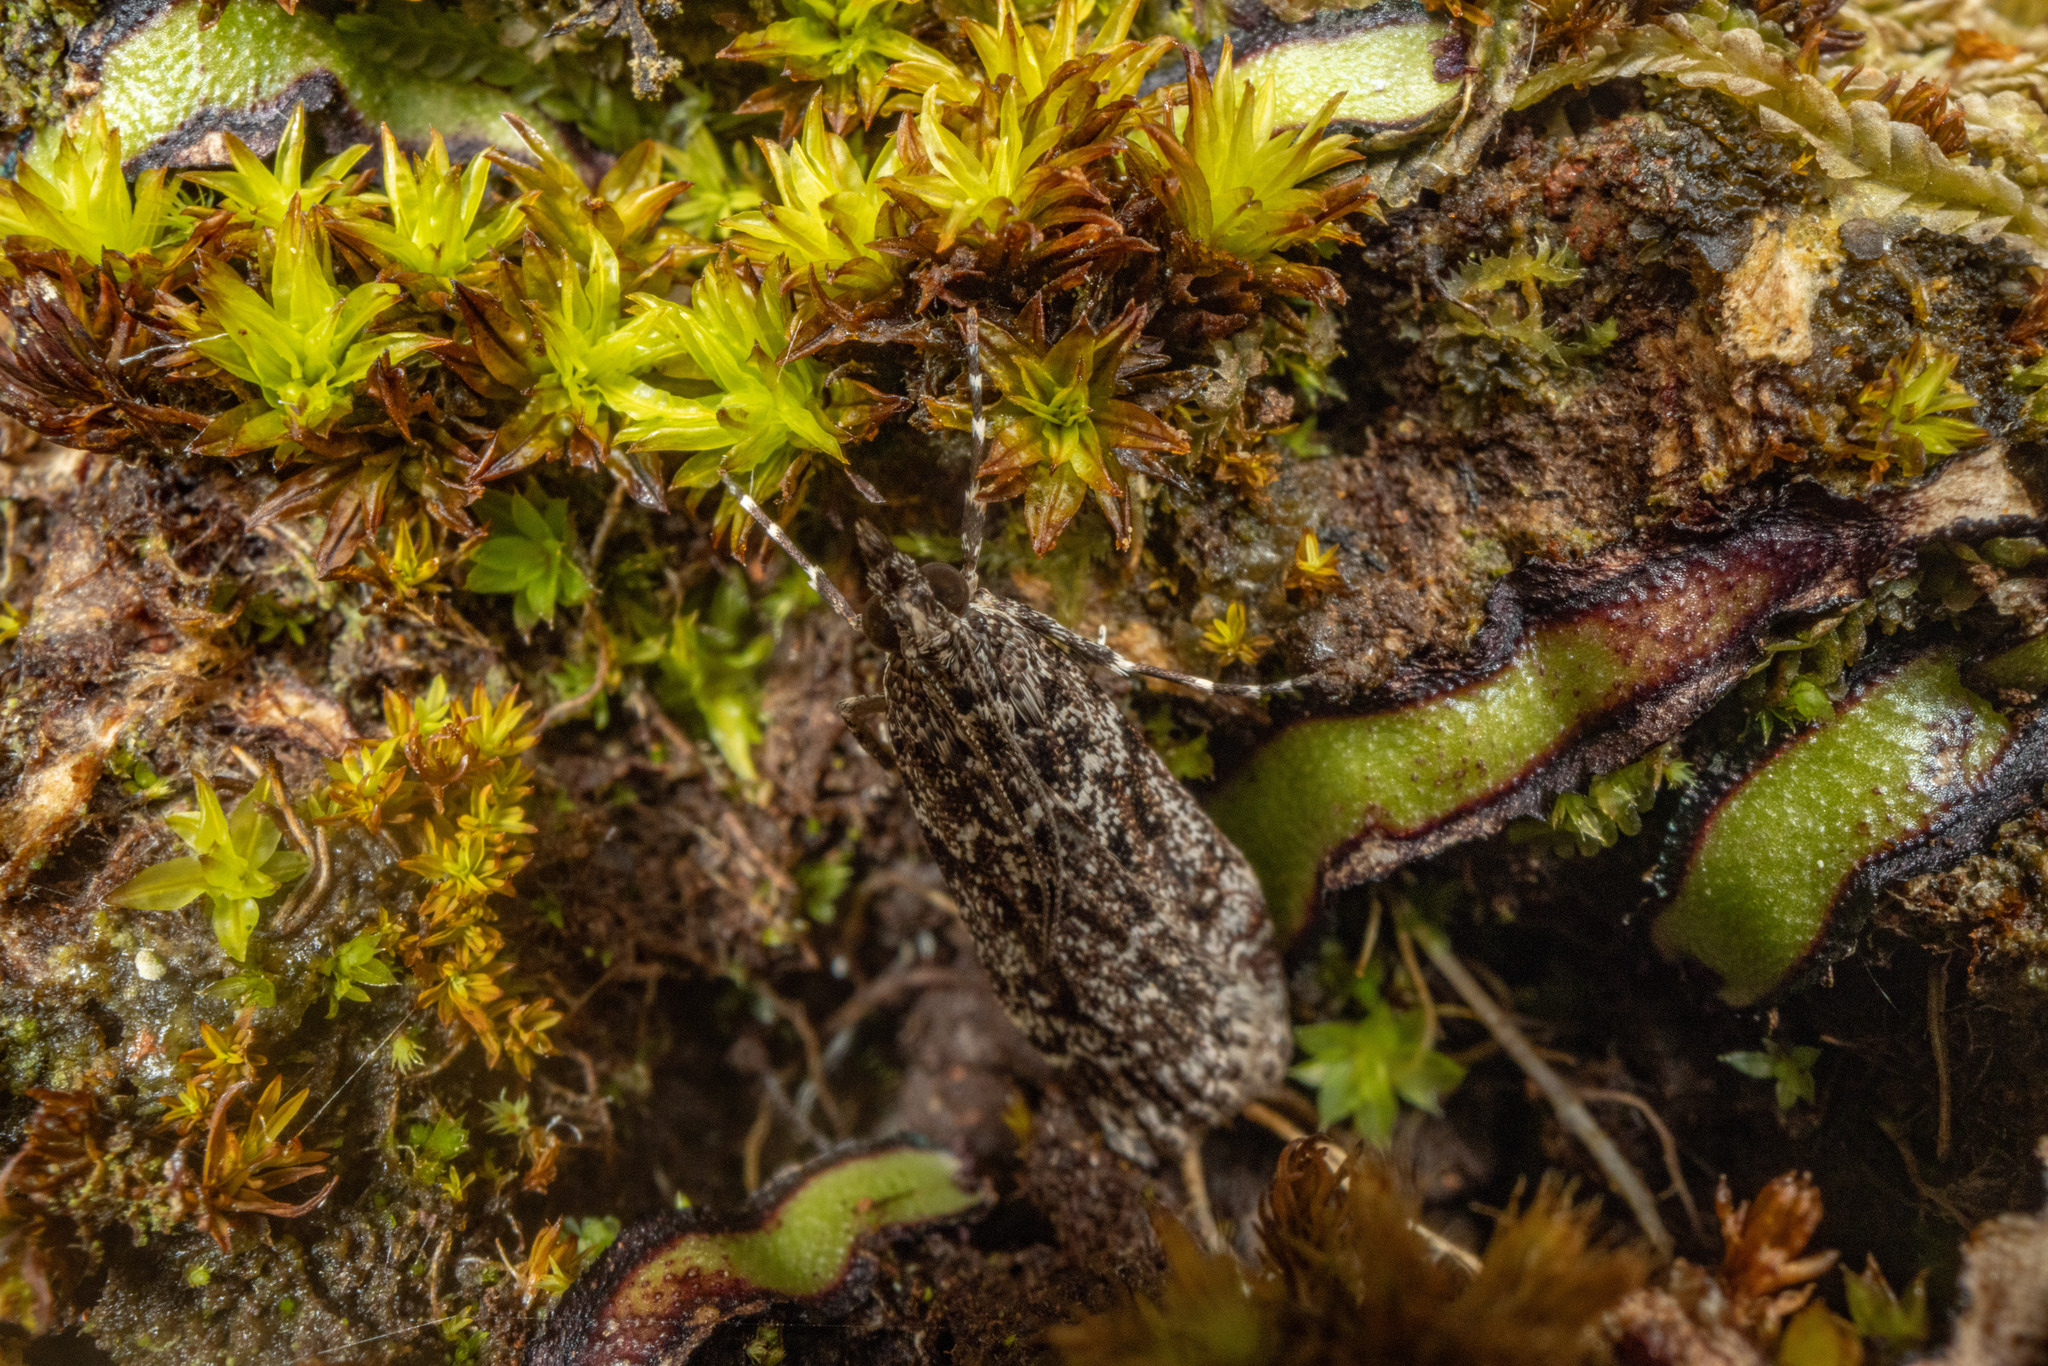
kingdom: Animalia
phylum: Arthropoda
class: Insecta
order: Lepidoptera
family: Crambidae
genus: Eudonia
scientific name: Eudonia philerga
